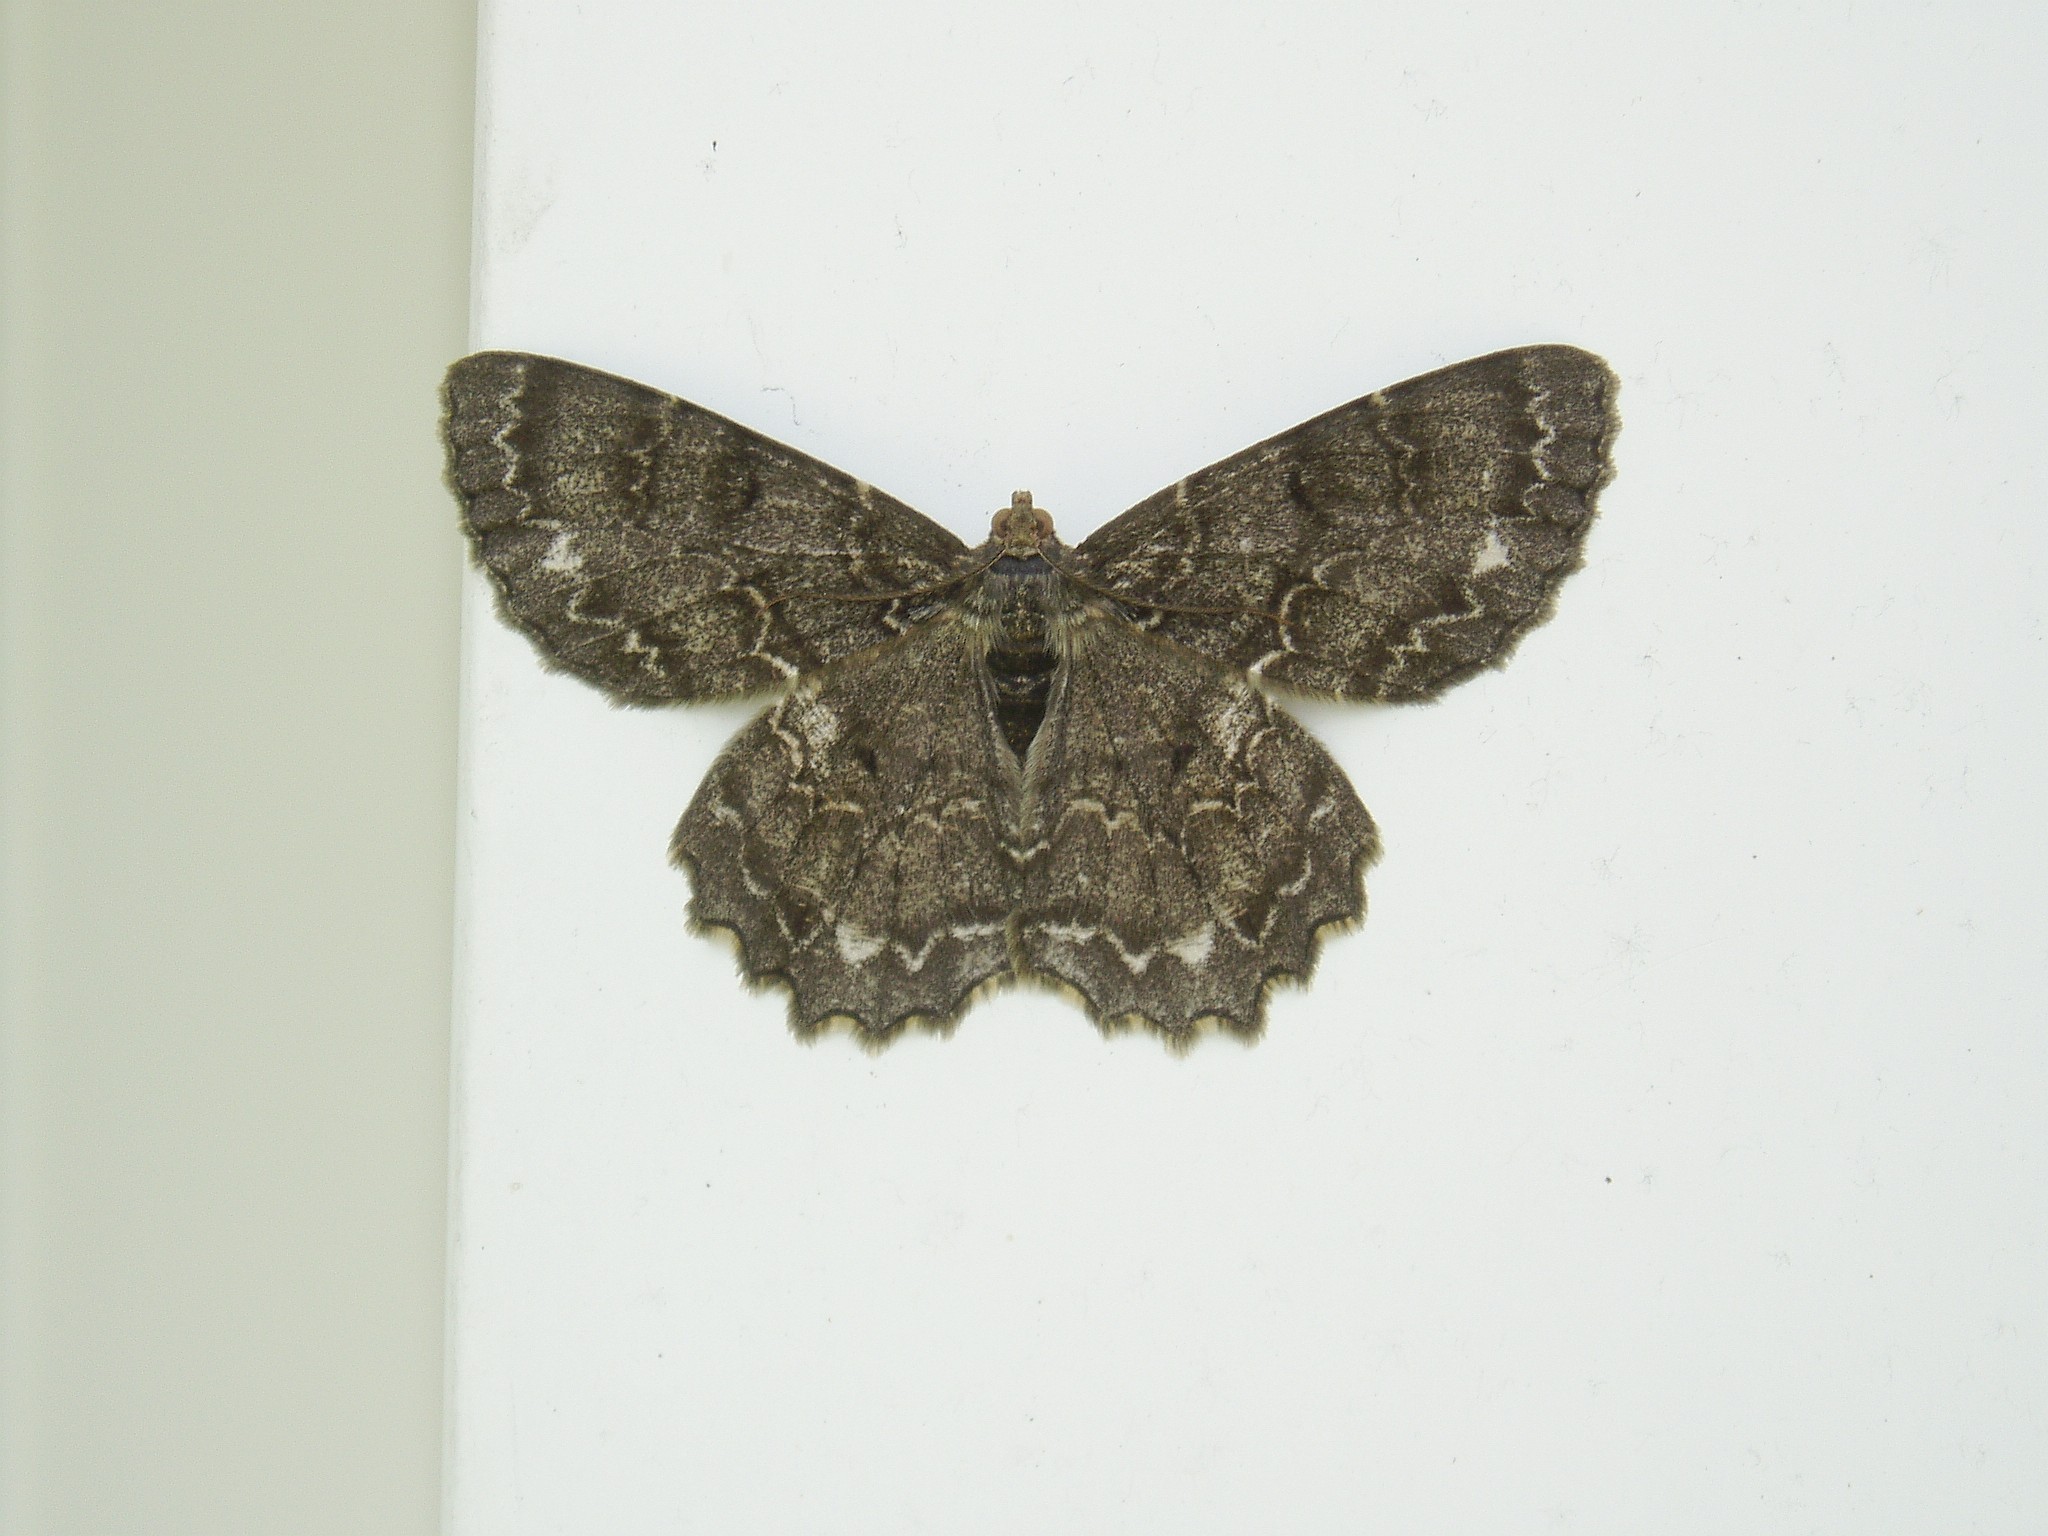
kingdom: Animalia
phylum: Arthropoda
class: Insecta
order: Lepidoptera
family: Geometridae
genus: Epimecis
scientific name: Epimecis hortaria
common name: Tulip-tree beauty
